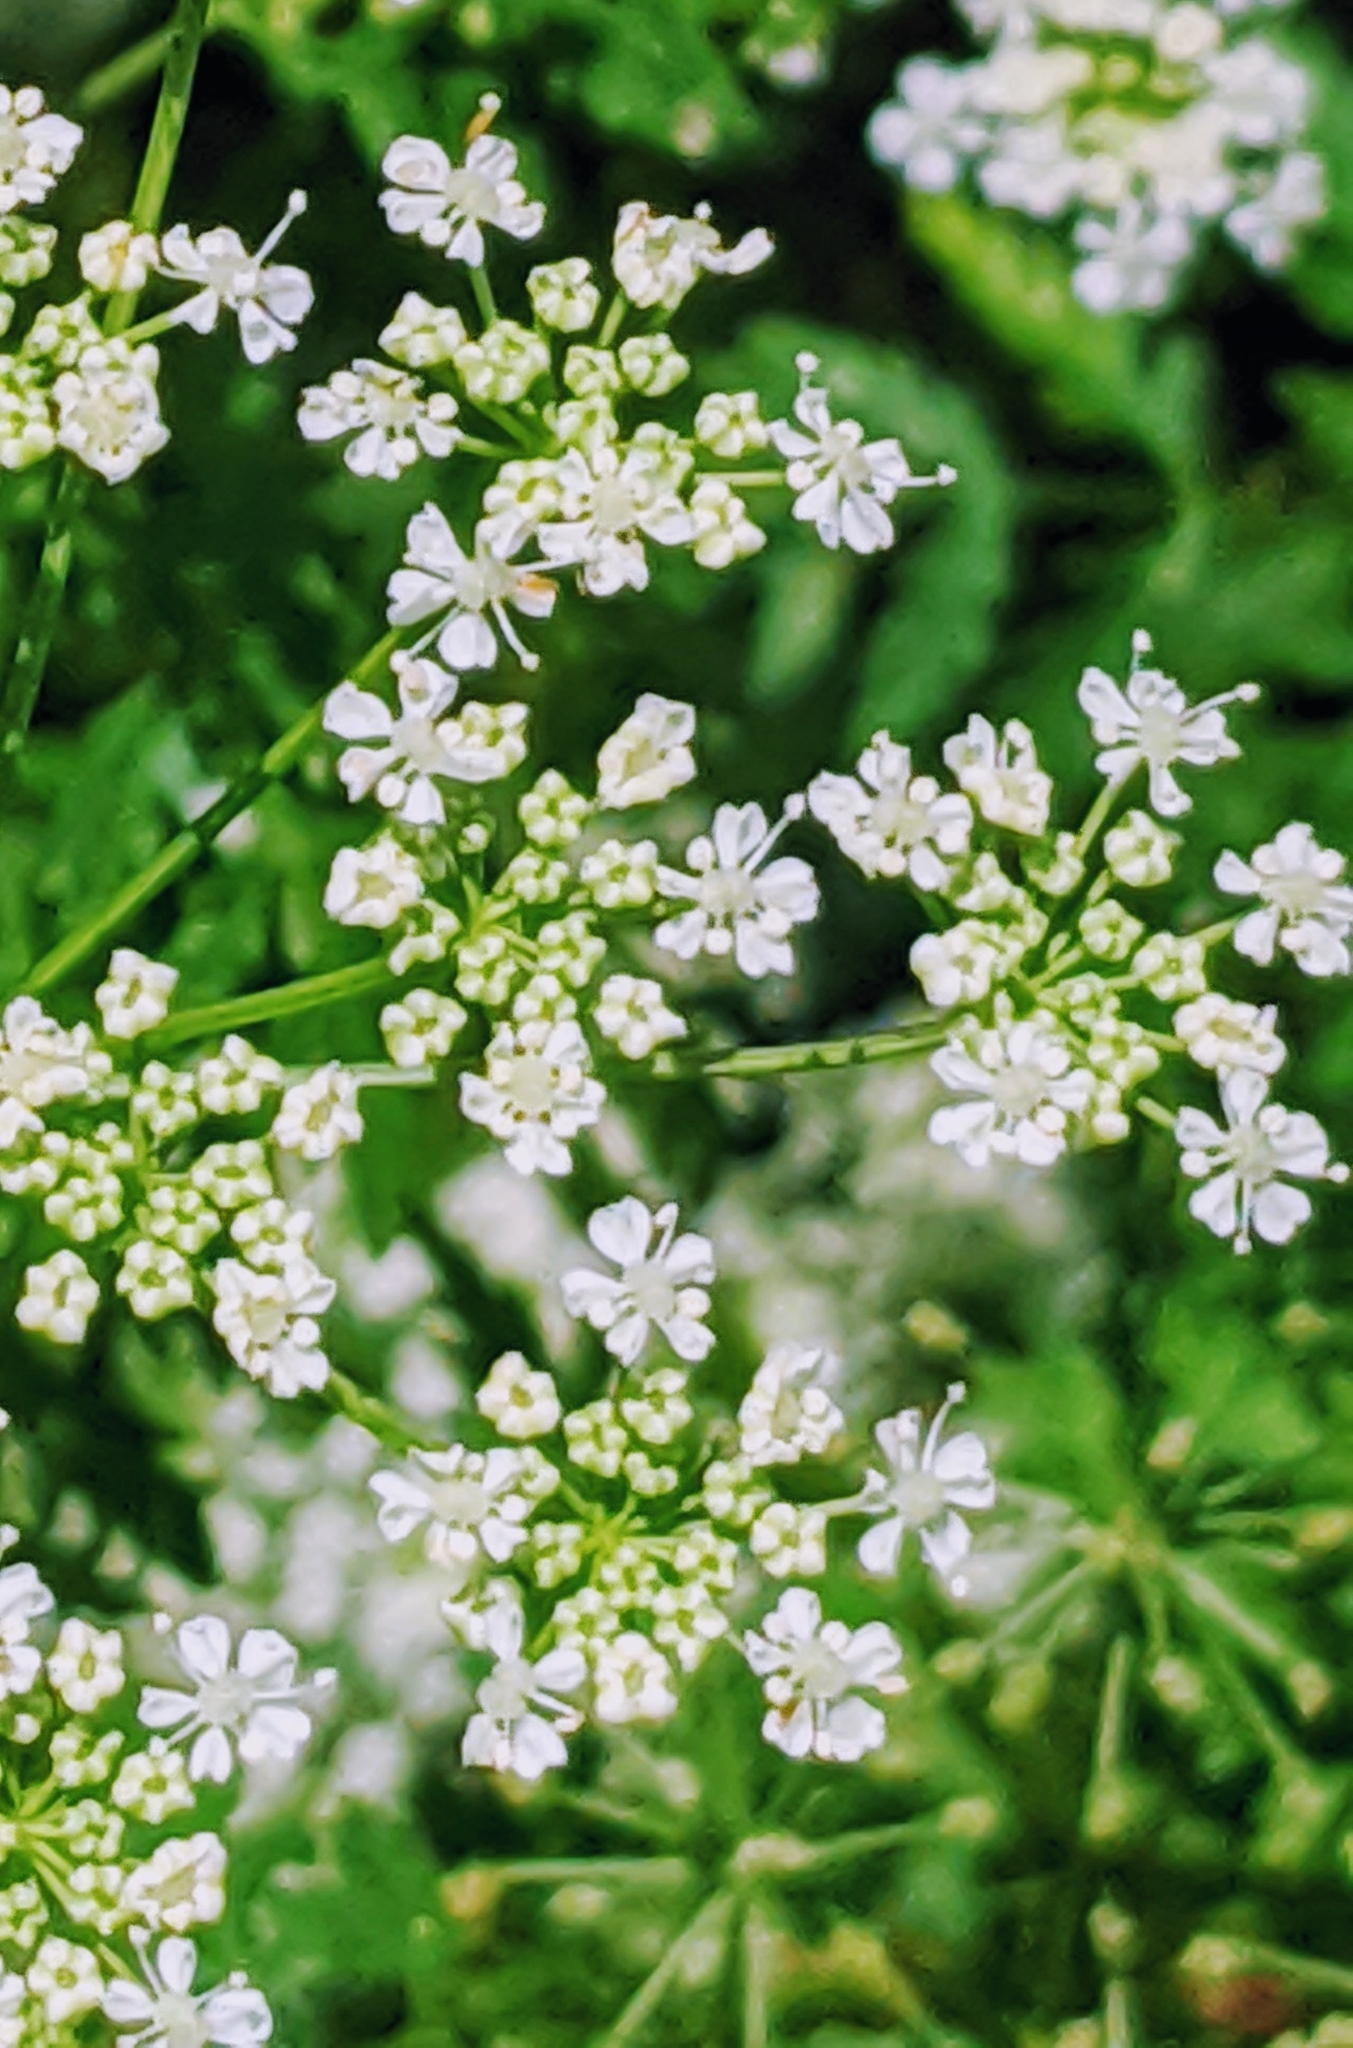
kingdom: Plantae
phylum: Tracheophyta
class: Magnoliopsida
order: Apiales
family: Apiaceae
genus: Conium
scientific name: Conium maculatum
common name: Hemlock
